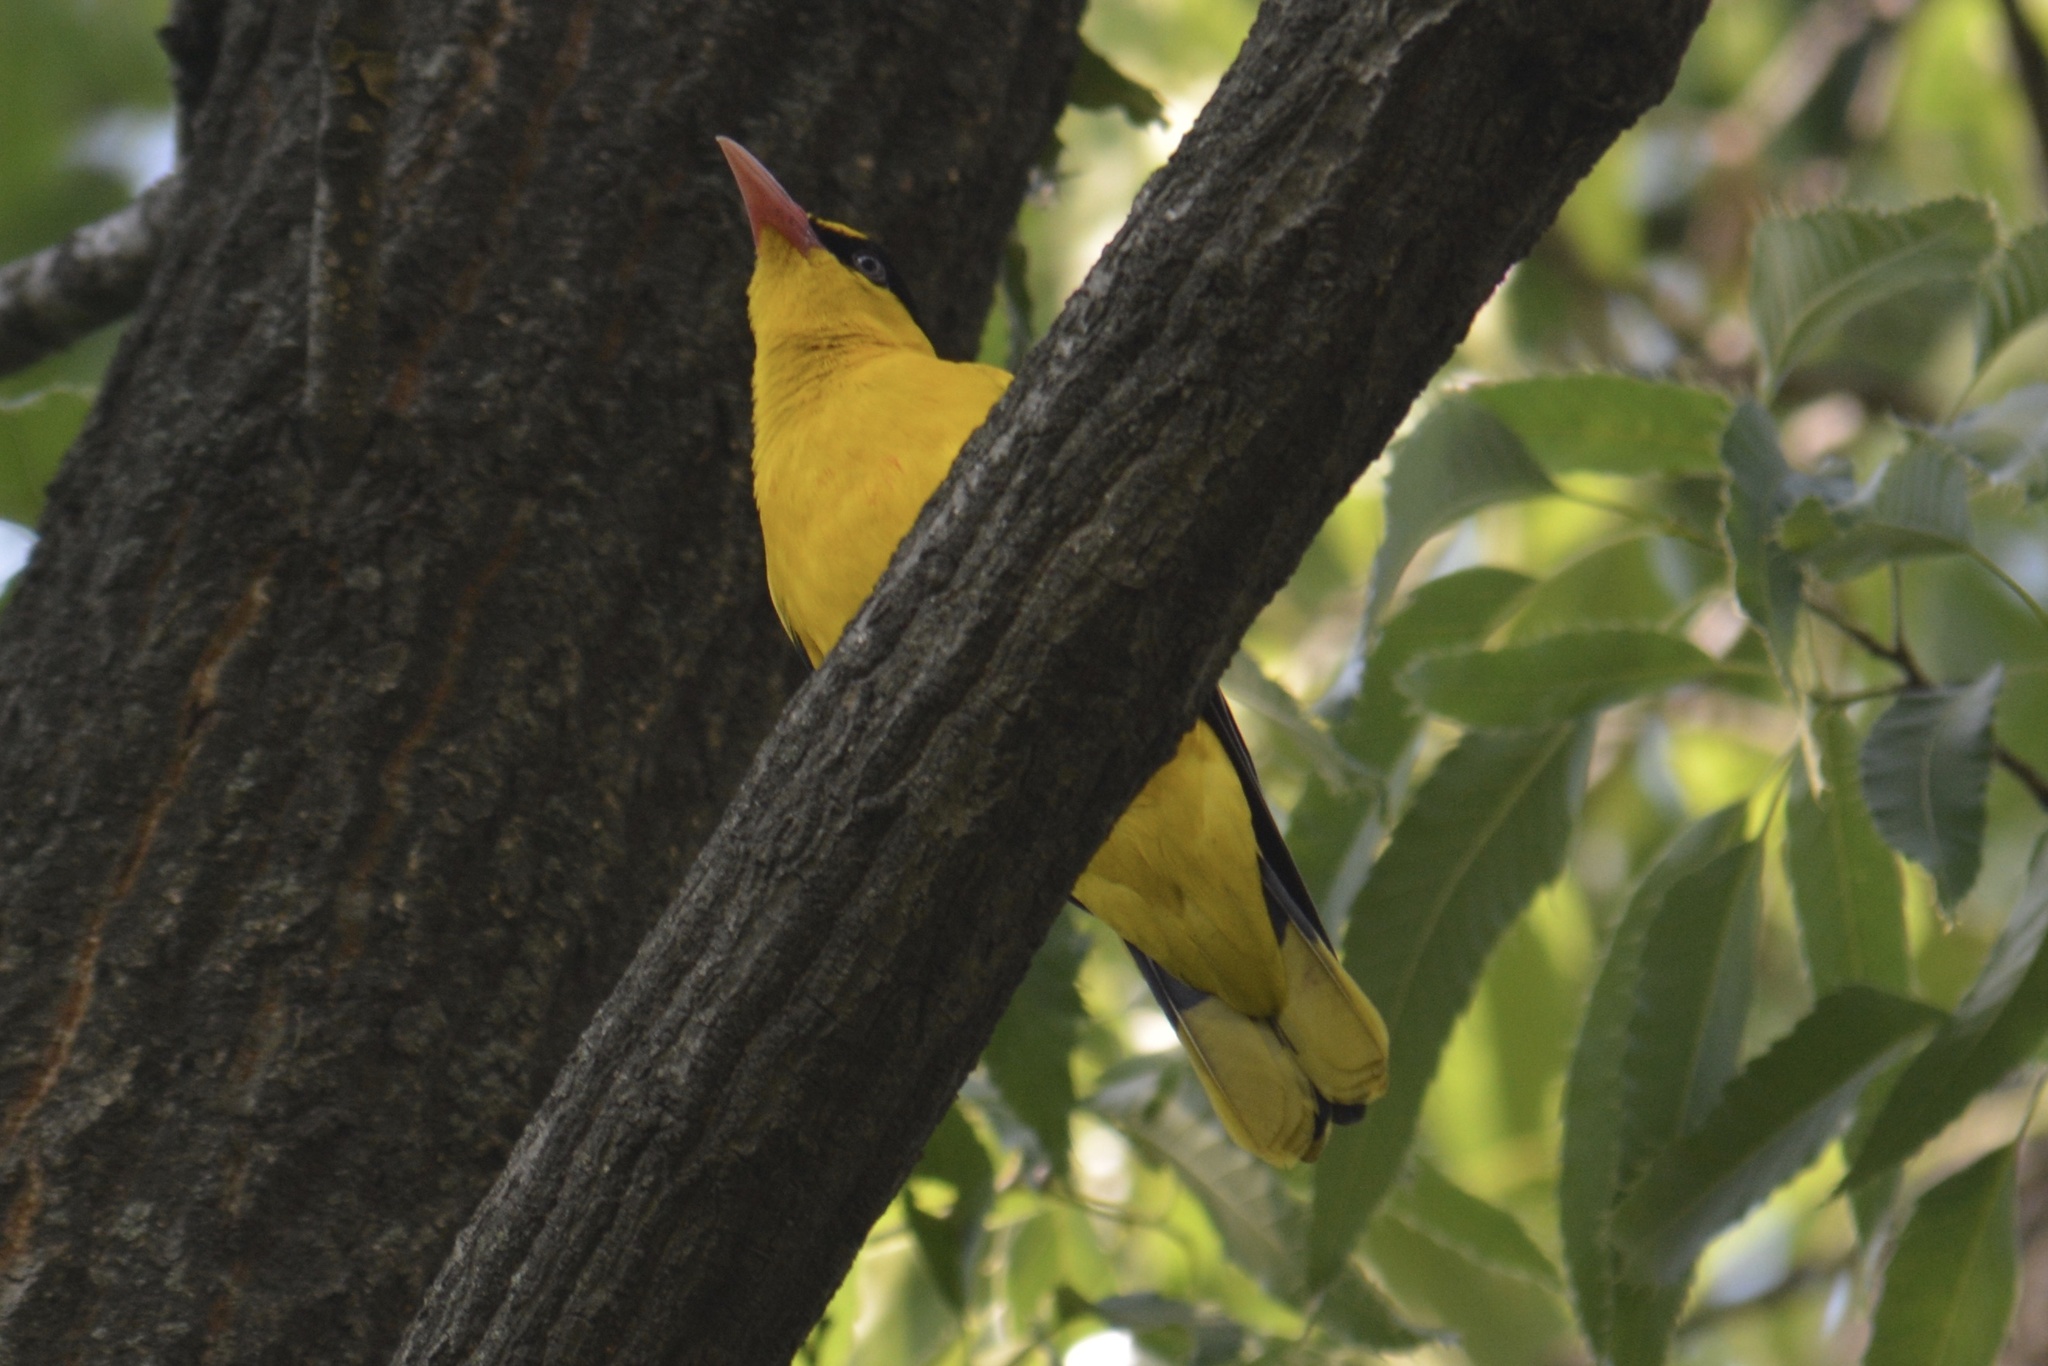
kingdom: Animalia
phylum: Chordata
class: Aves
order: Passeriformes
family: Oriolidae
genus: Oriolus
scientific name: Oriolus chinensis
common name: Black-naped oriole
